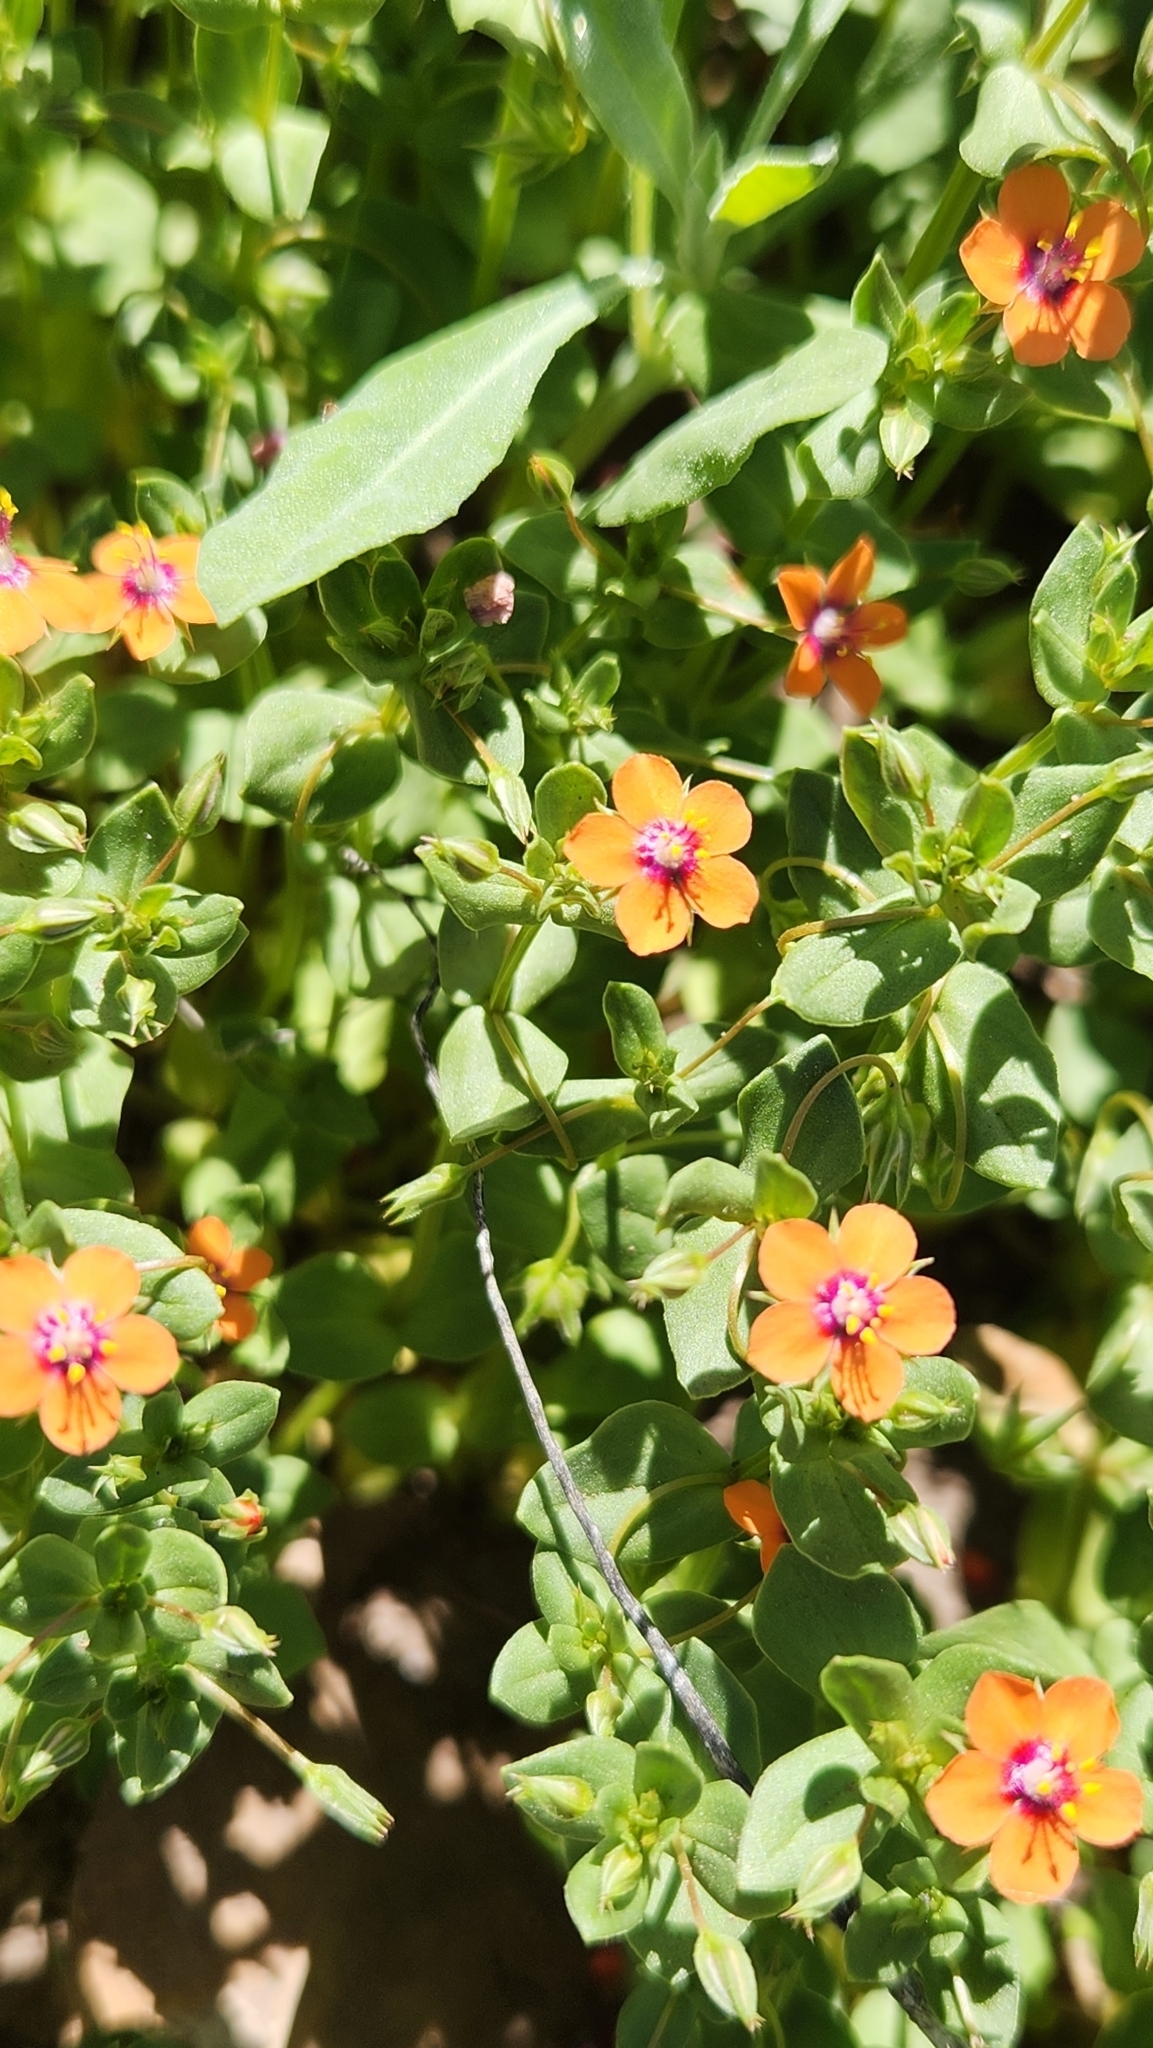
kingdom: Plantae
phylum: Tracheophyta
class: Magnoliopsida
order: Ericales
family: Primulaceae
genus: Lysimachia
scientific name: Lysimachia arvensis
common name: Scarlet pimpernel
